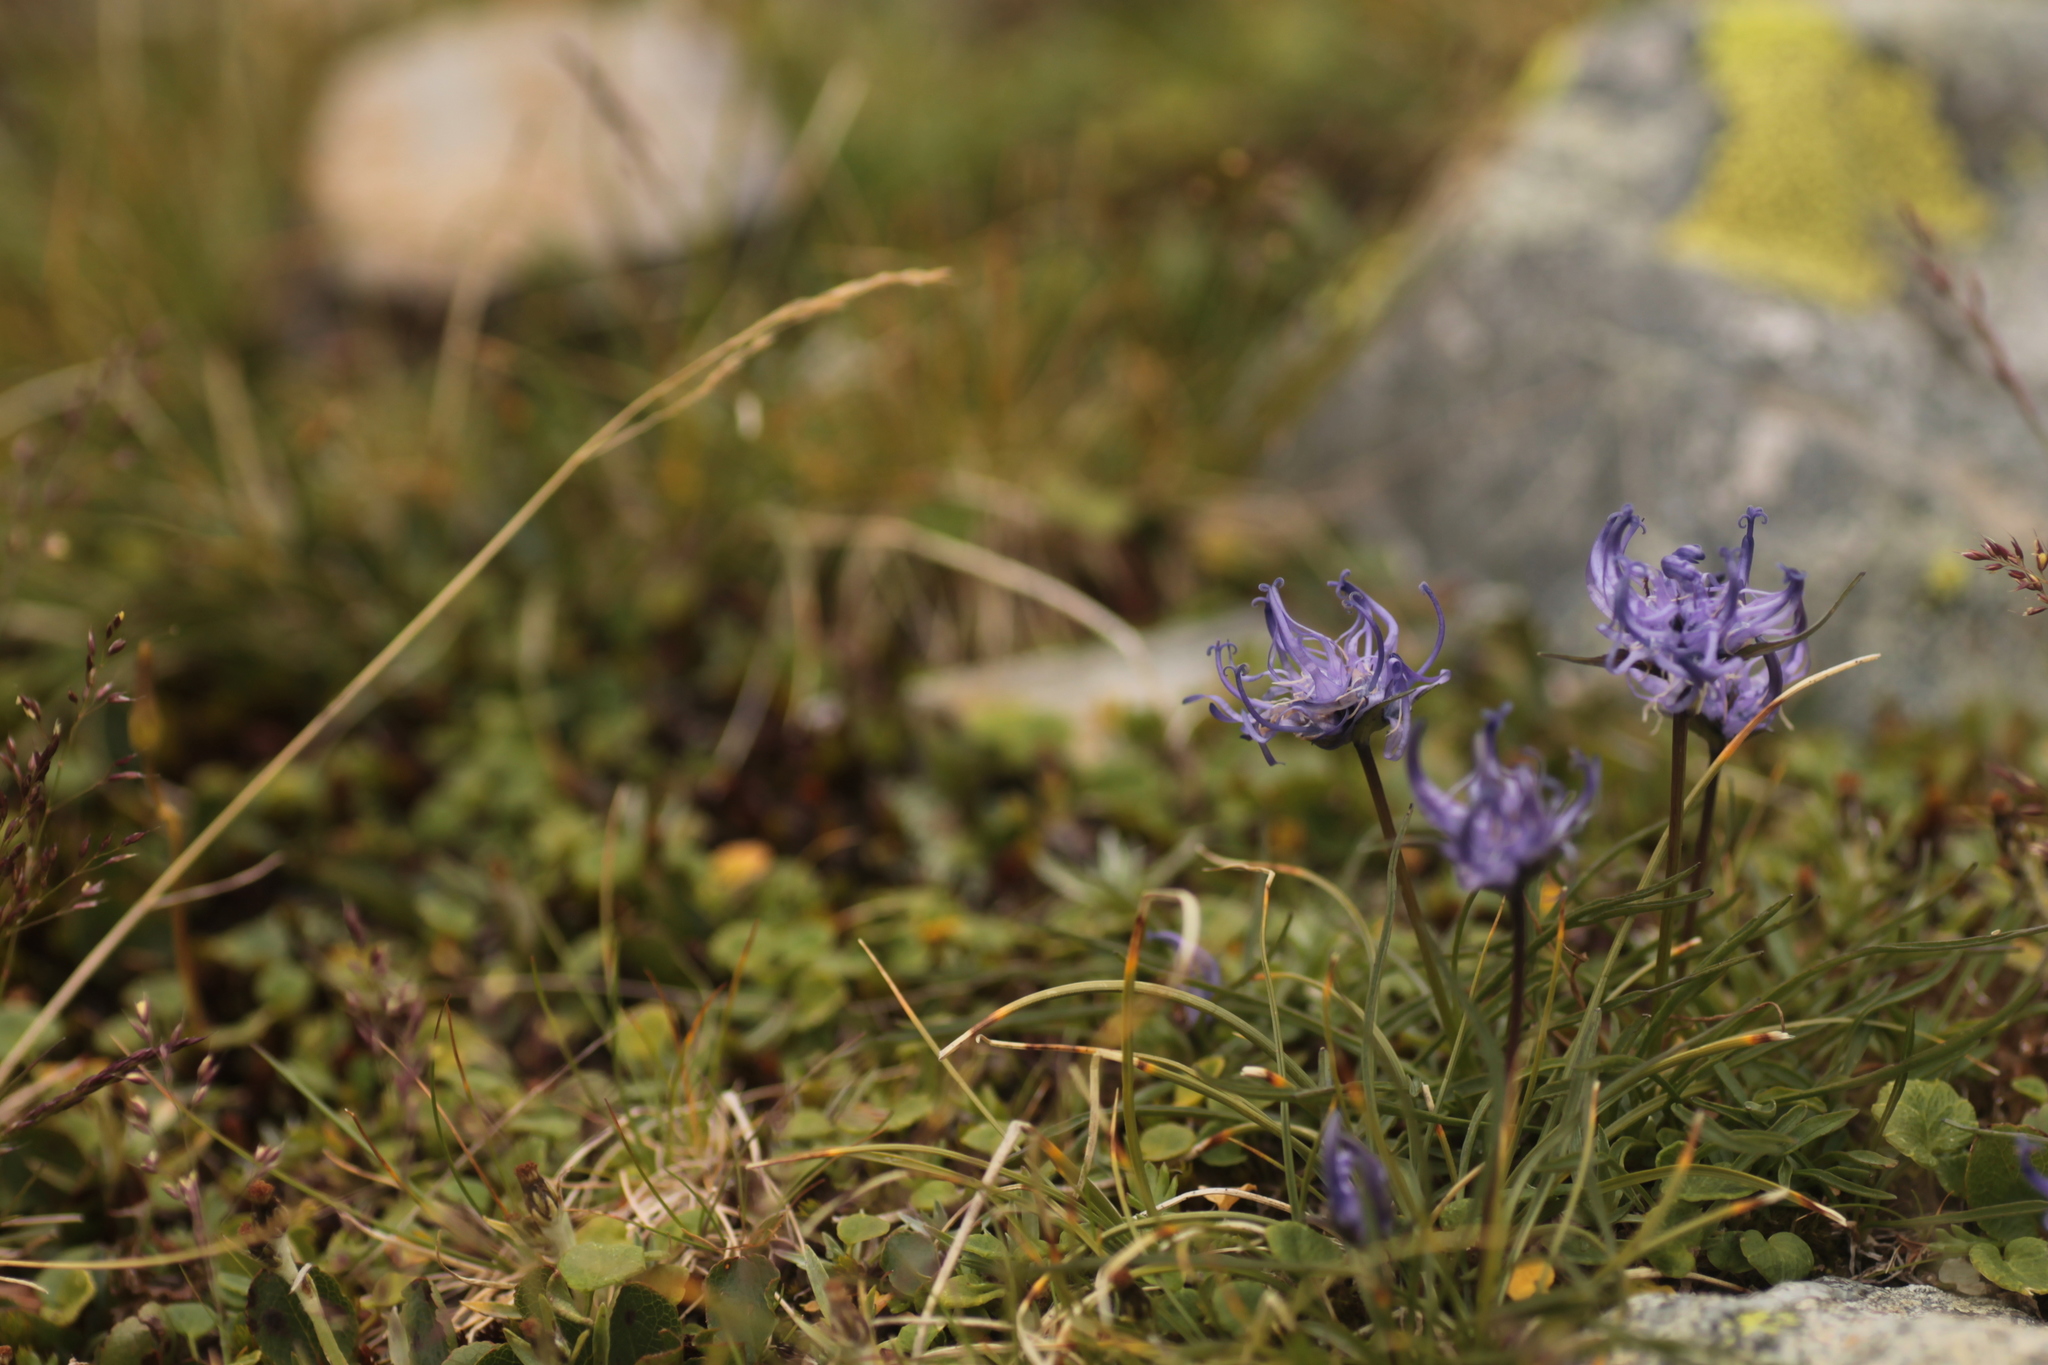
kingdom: Plantae
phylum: Tracheophyta
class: Magnoliopsida
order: Asterales
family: Campanulaceae
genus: Phyteuma
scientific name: Phyteuma hemisphaericum
